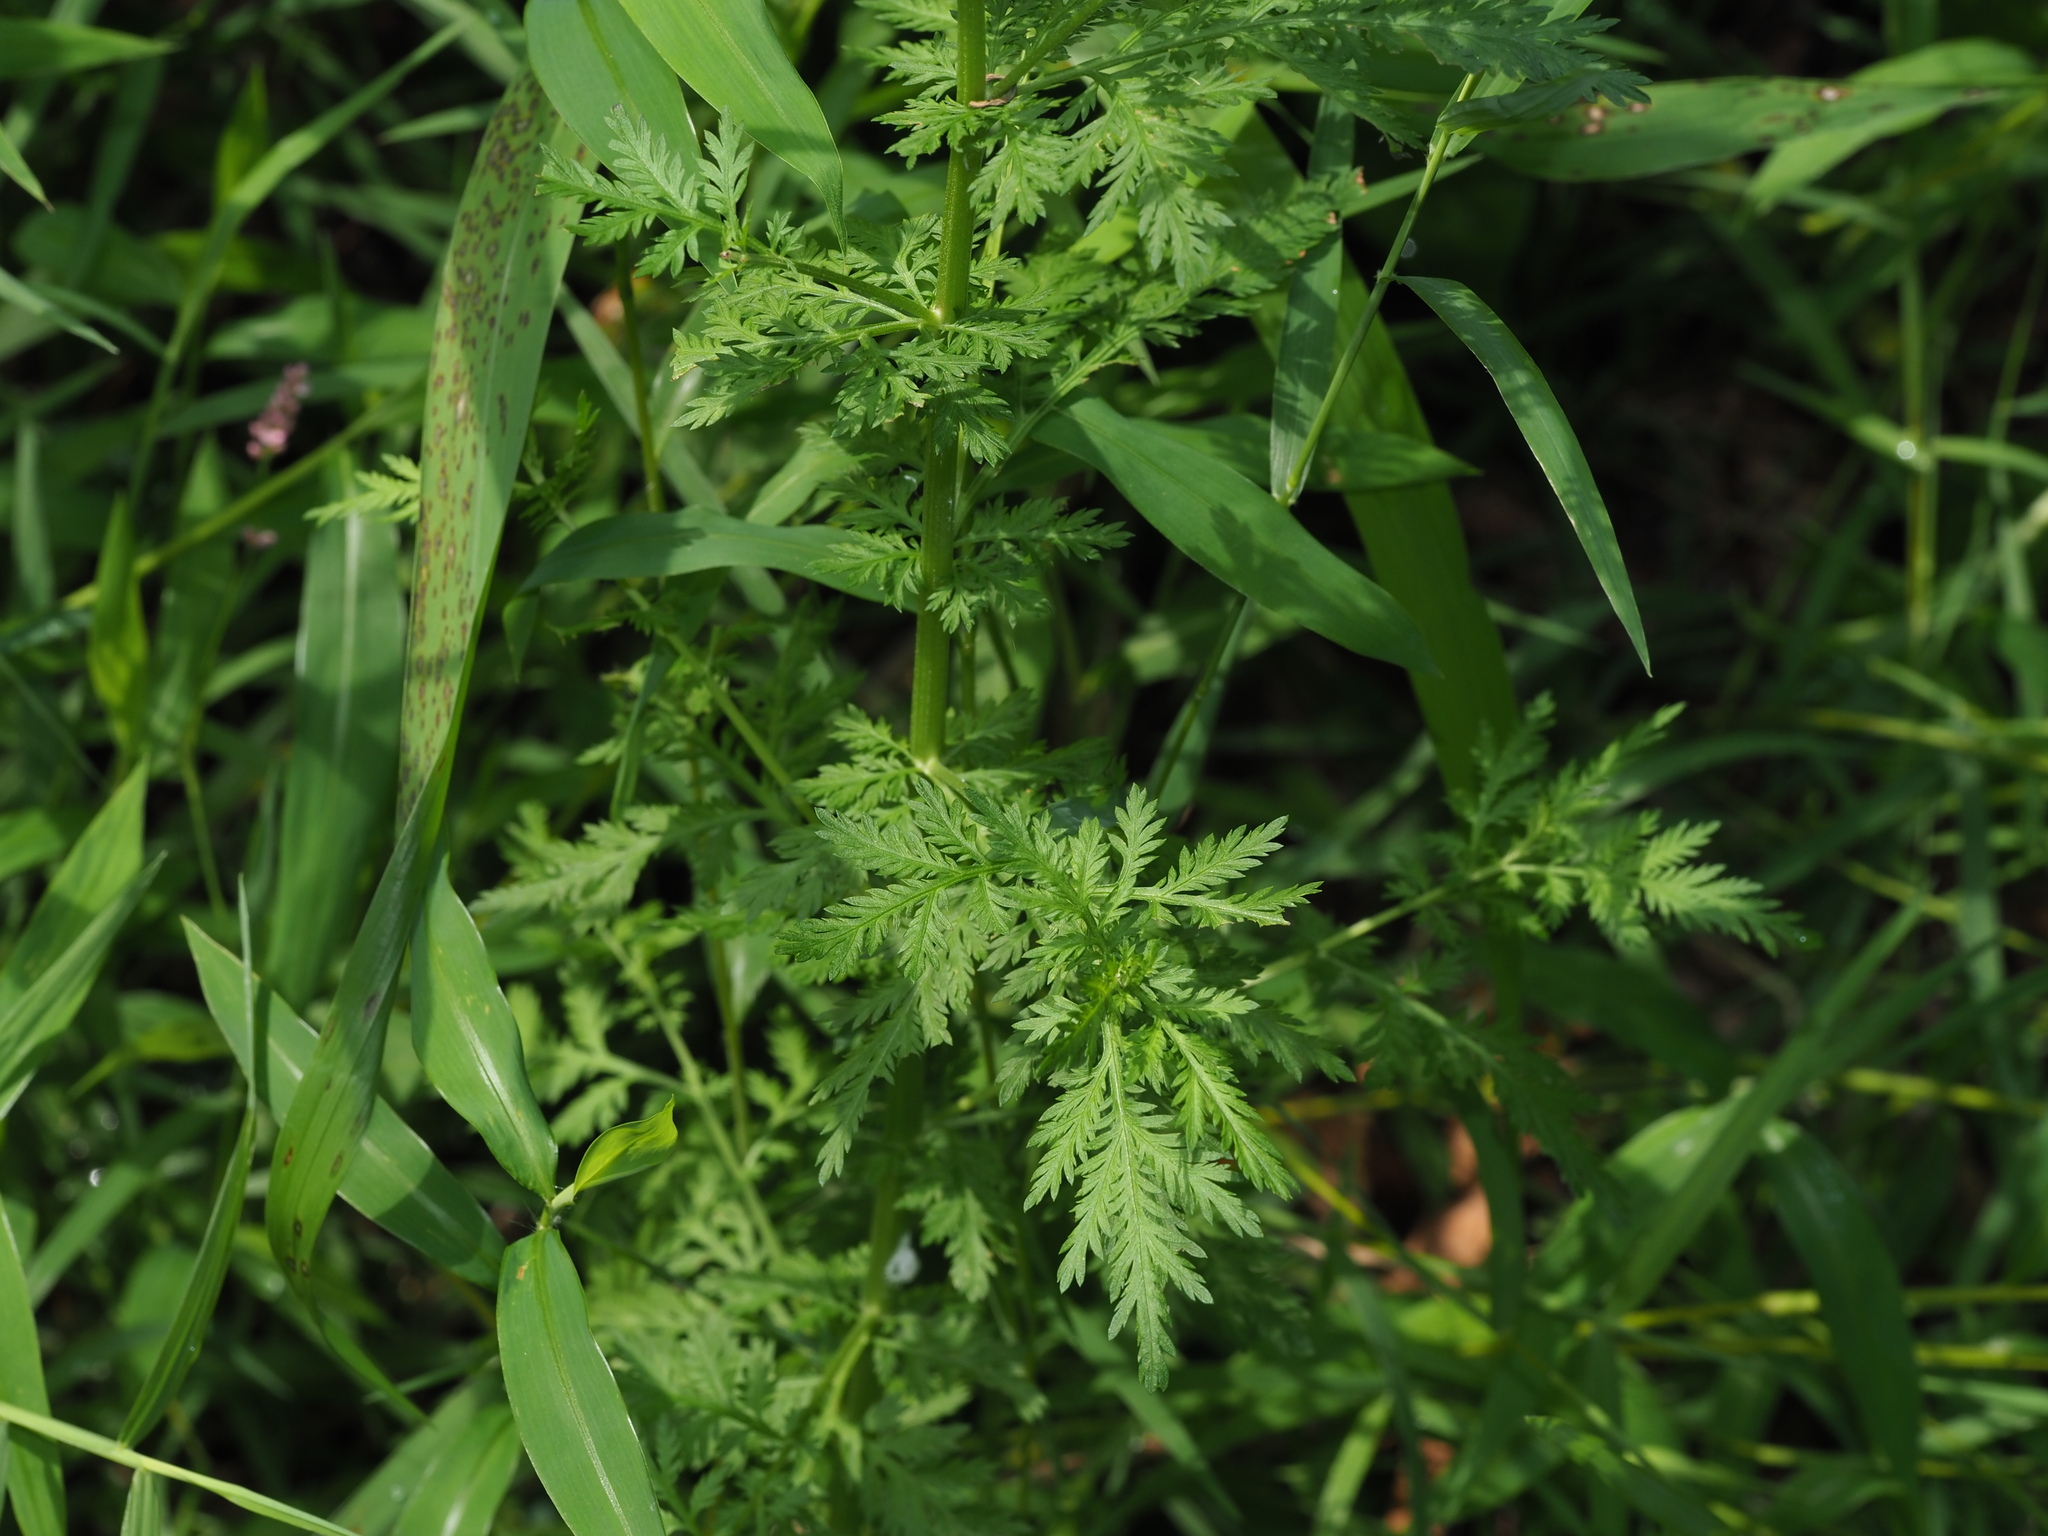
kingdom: Plantae
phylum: Tracheophyta
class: Magnoliopsida
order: Asterales
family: Asteraceae
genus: Artemisia
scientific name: Artemisia annua
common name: Sweet sagewort
